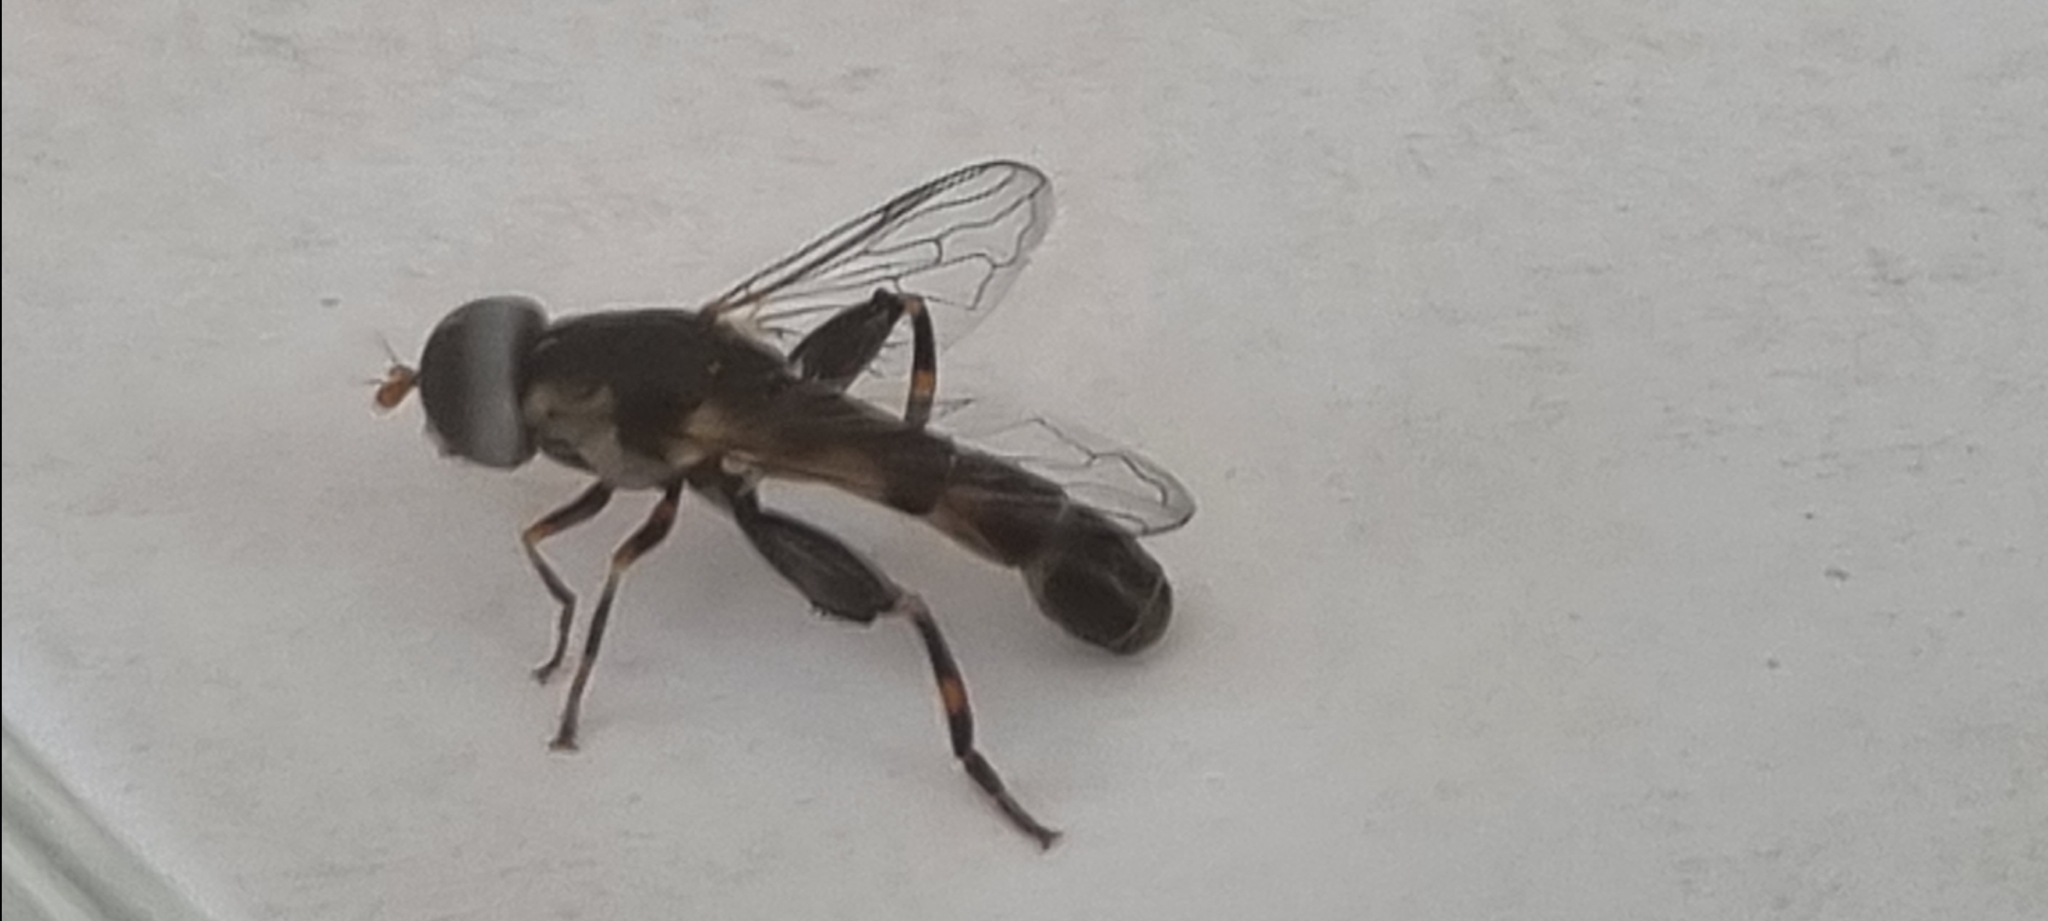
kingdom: Animalia
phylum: Arthropoda
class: Insecta
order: Diptera
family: Syrphidae
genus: Syritta
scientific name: Syritta pipiens
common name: Hover fly
